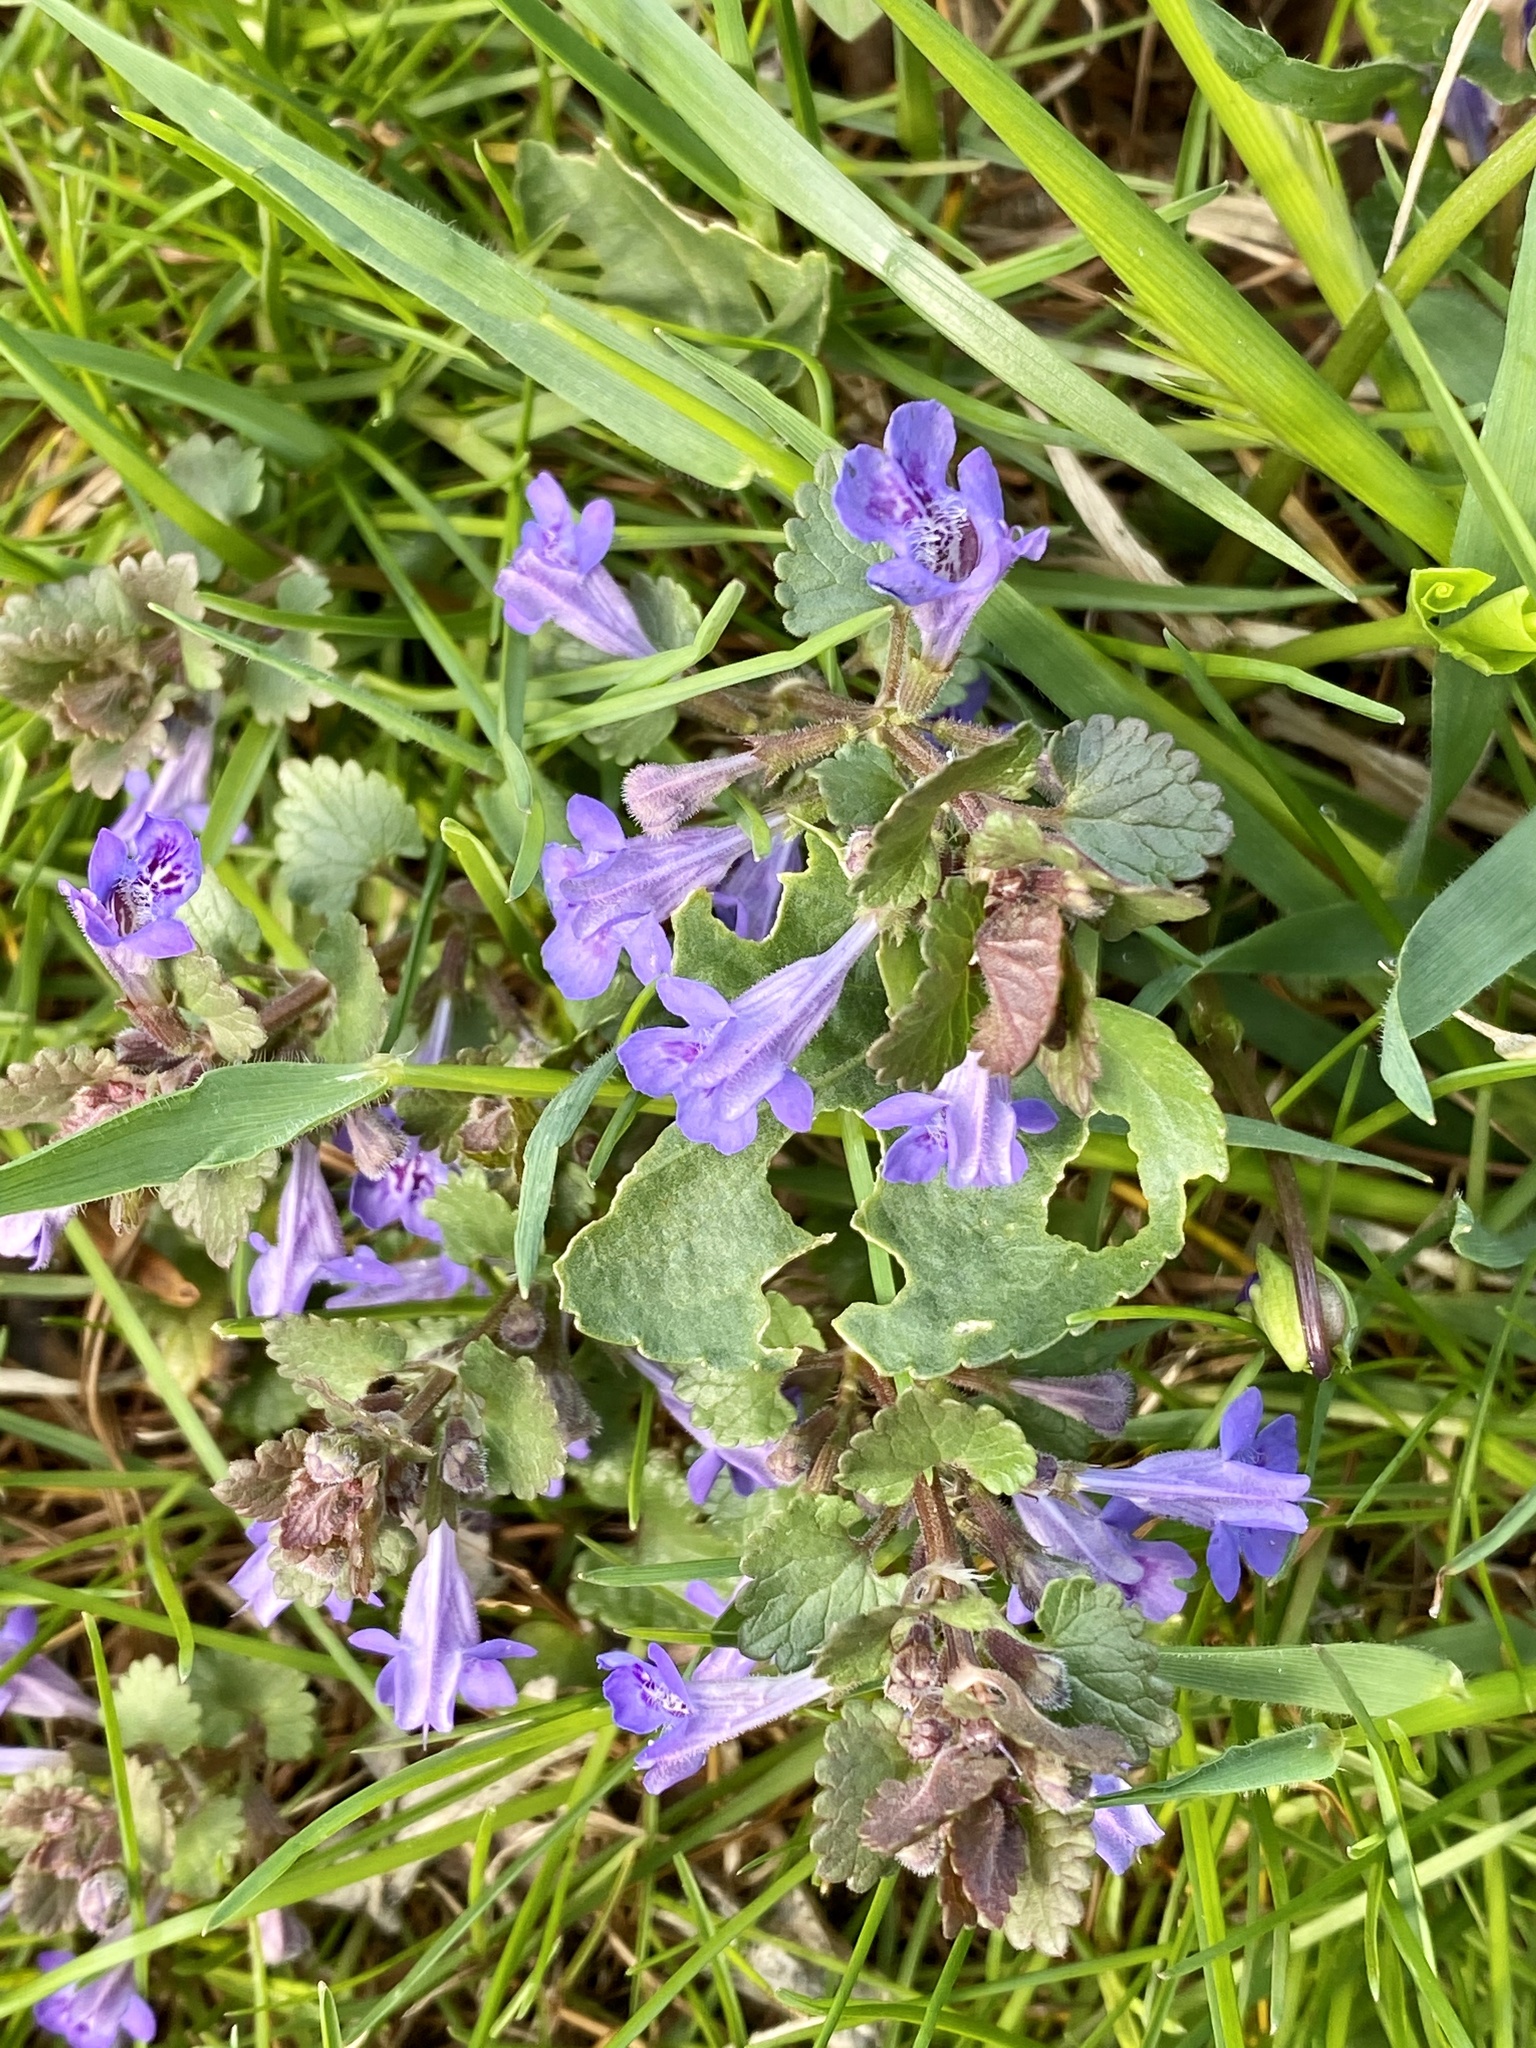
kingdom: Plantae
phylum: Tracheophyta
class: Magnoliopsida
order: Lamiales
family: Lamiaceae
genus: Glechoma
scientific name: Glechoma hederacea
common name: Ground ivy
